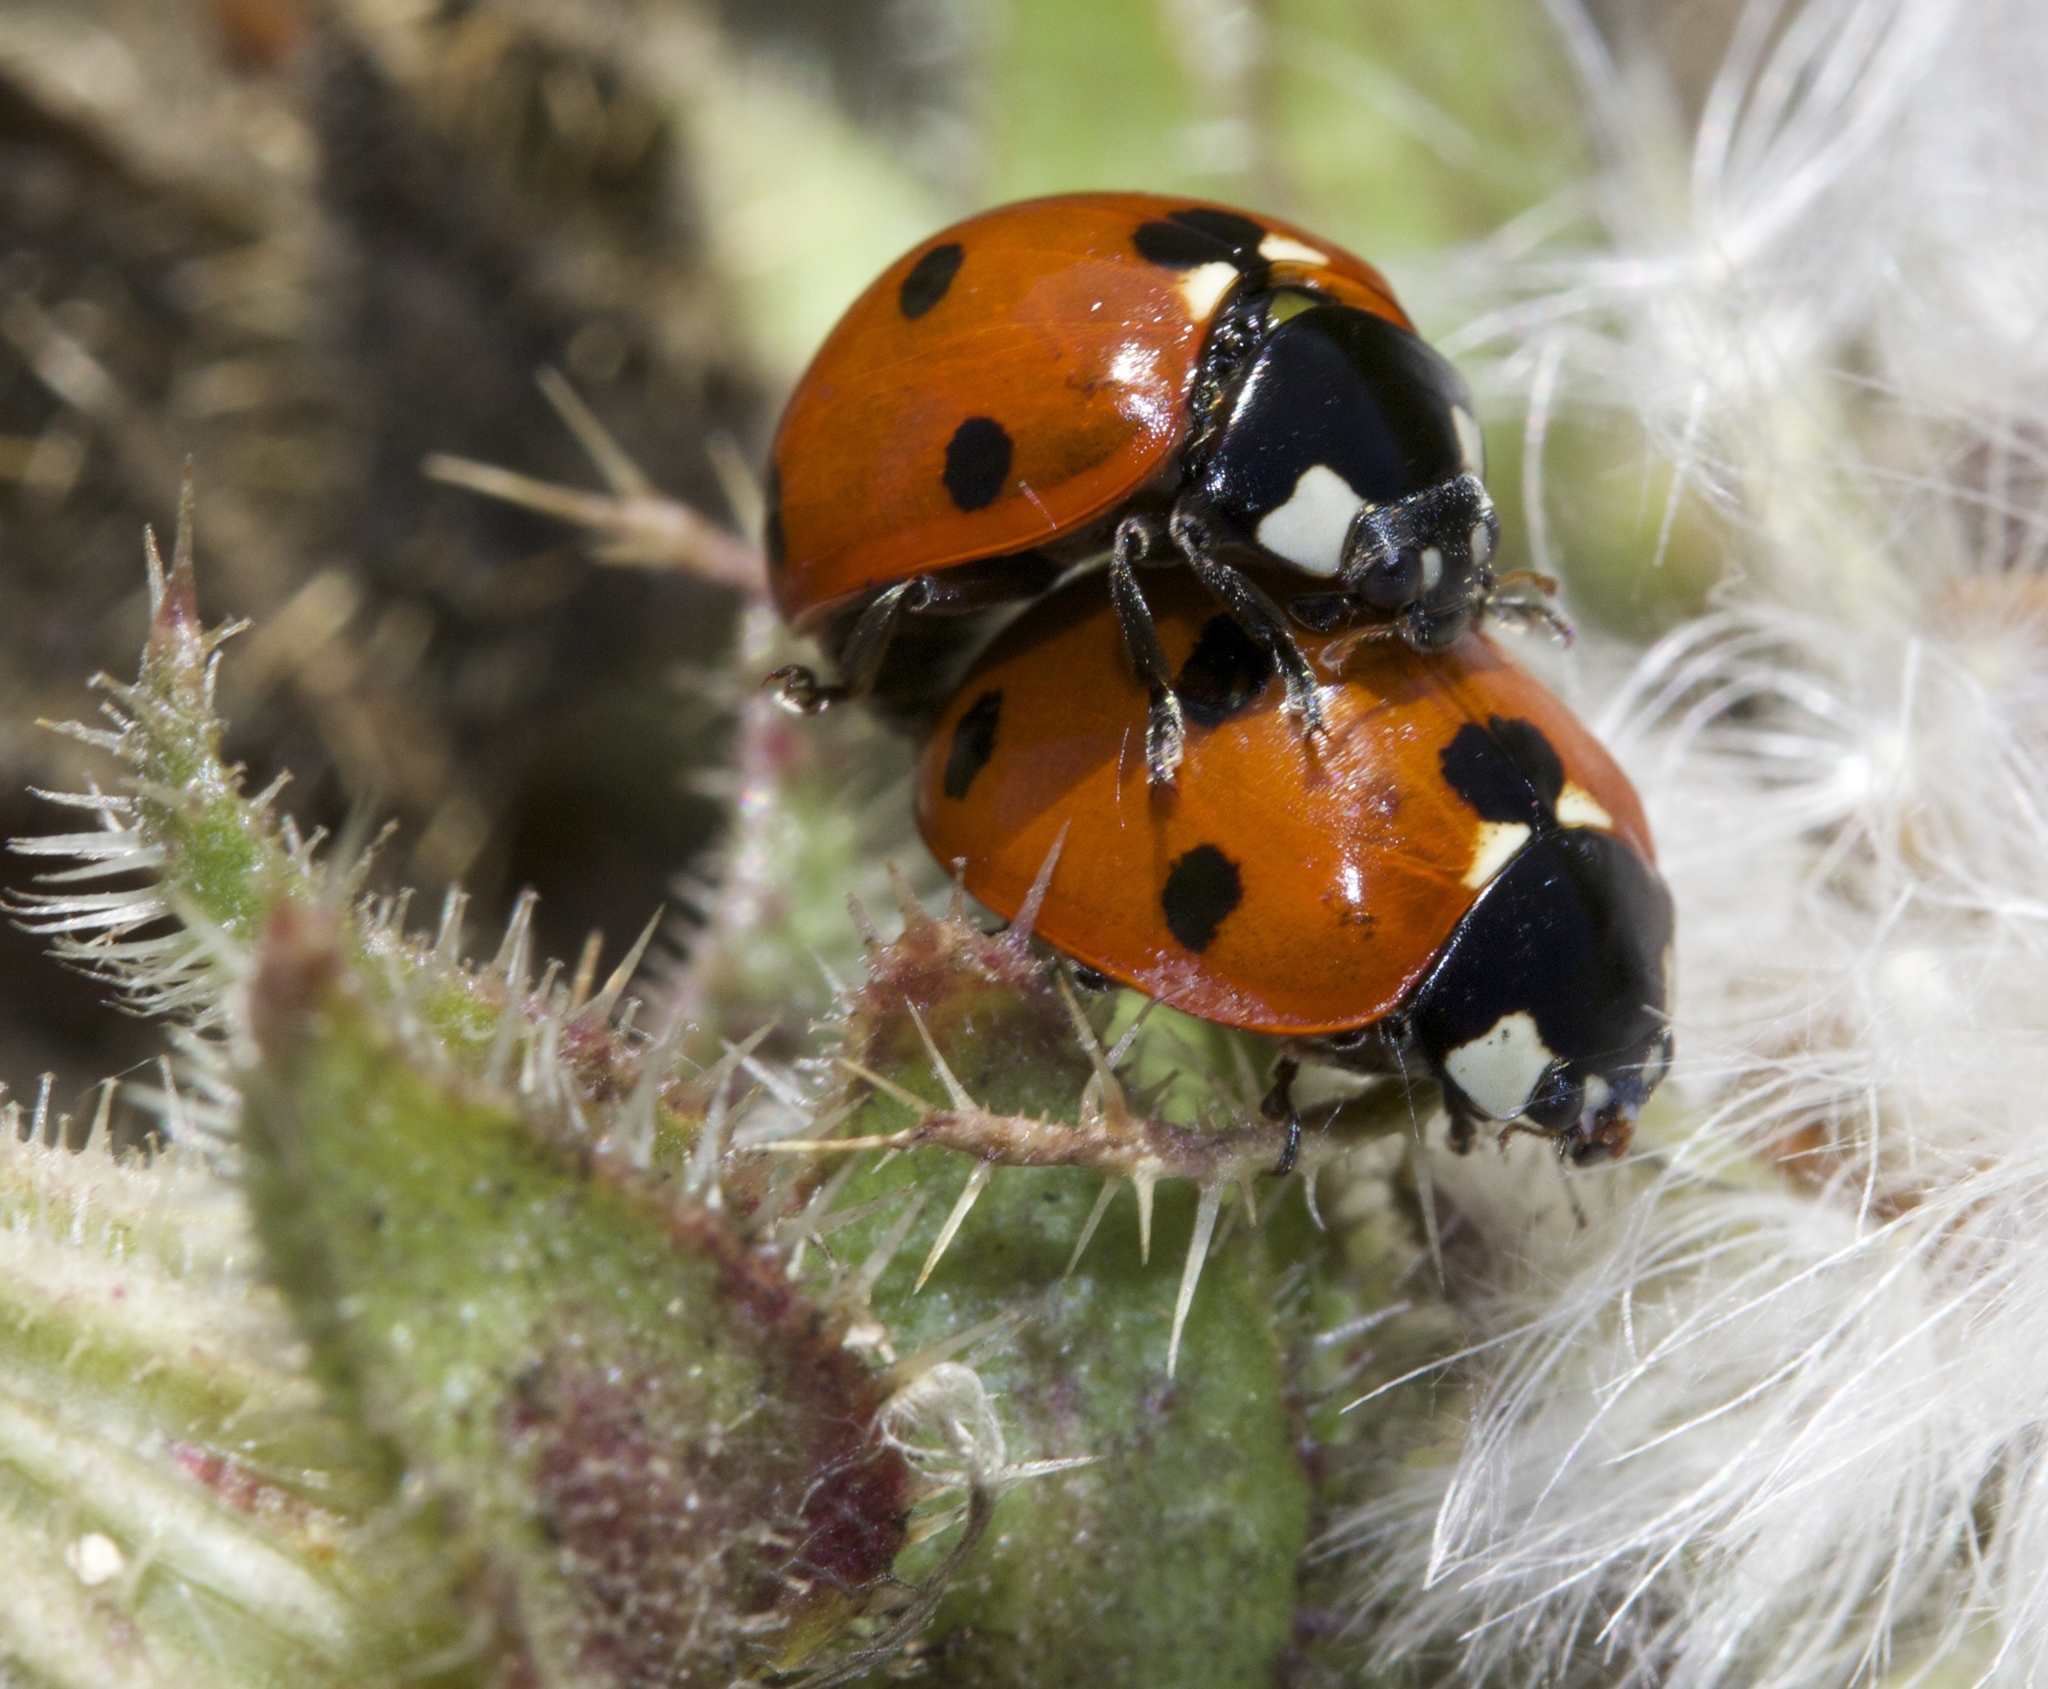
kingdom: Animalia
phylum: Arthropoda
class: Insecta
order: Coleoptera
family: Coccinellidae
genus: Coccinella
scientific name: Coccinella septempunctata
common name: Sevenspotted lady beetle
